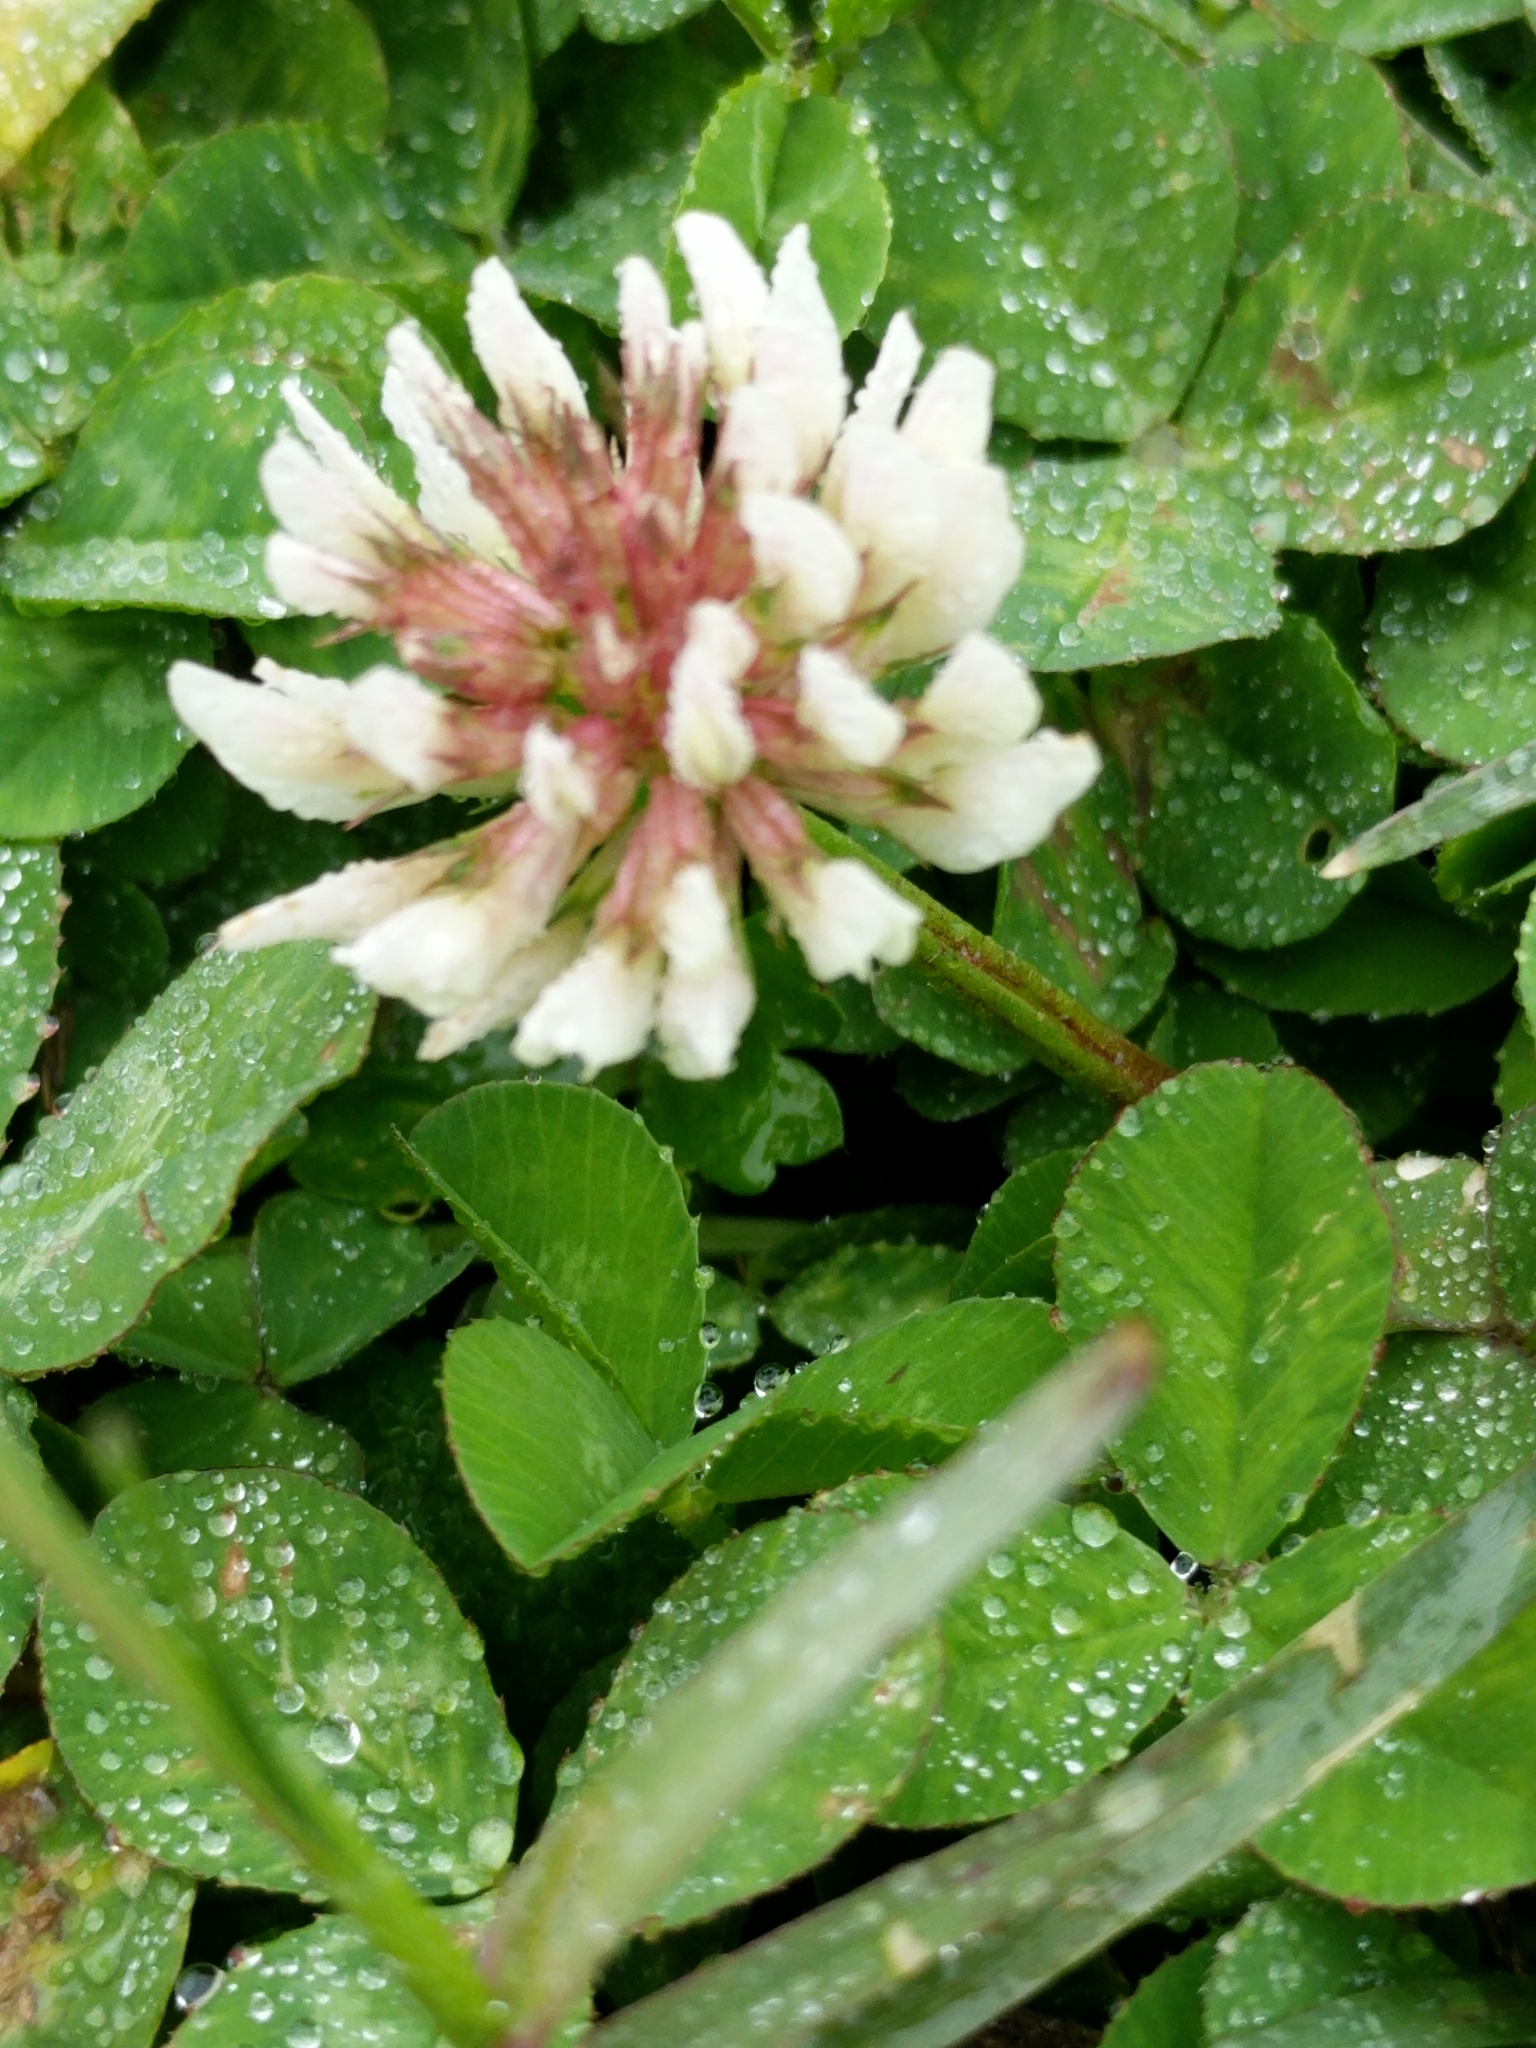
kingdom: Plantae
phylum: Tracheophyta
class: Magnoliopsida
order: Fabales
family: Fabaceae
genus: Trifolium
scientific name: Trifolium repens
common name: White clover
